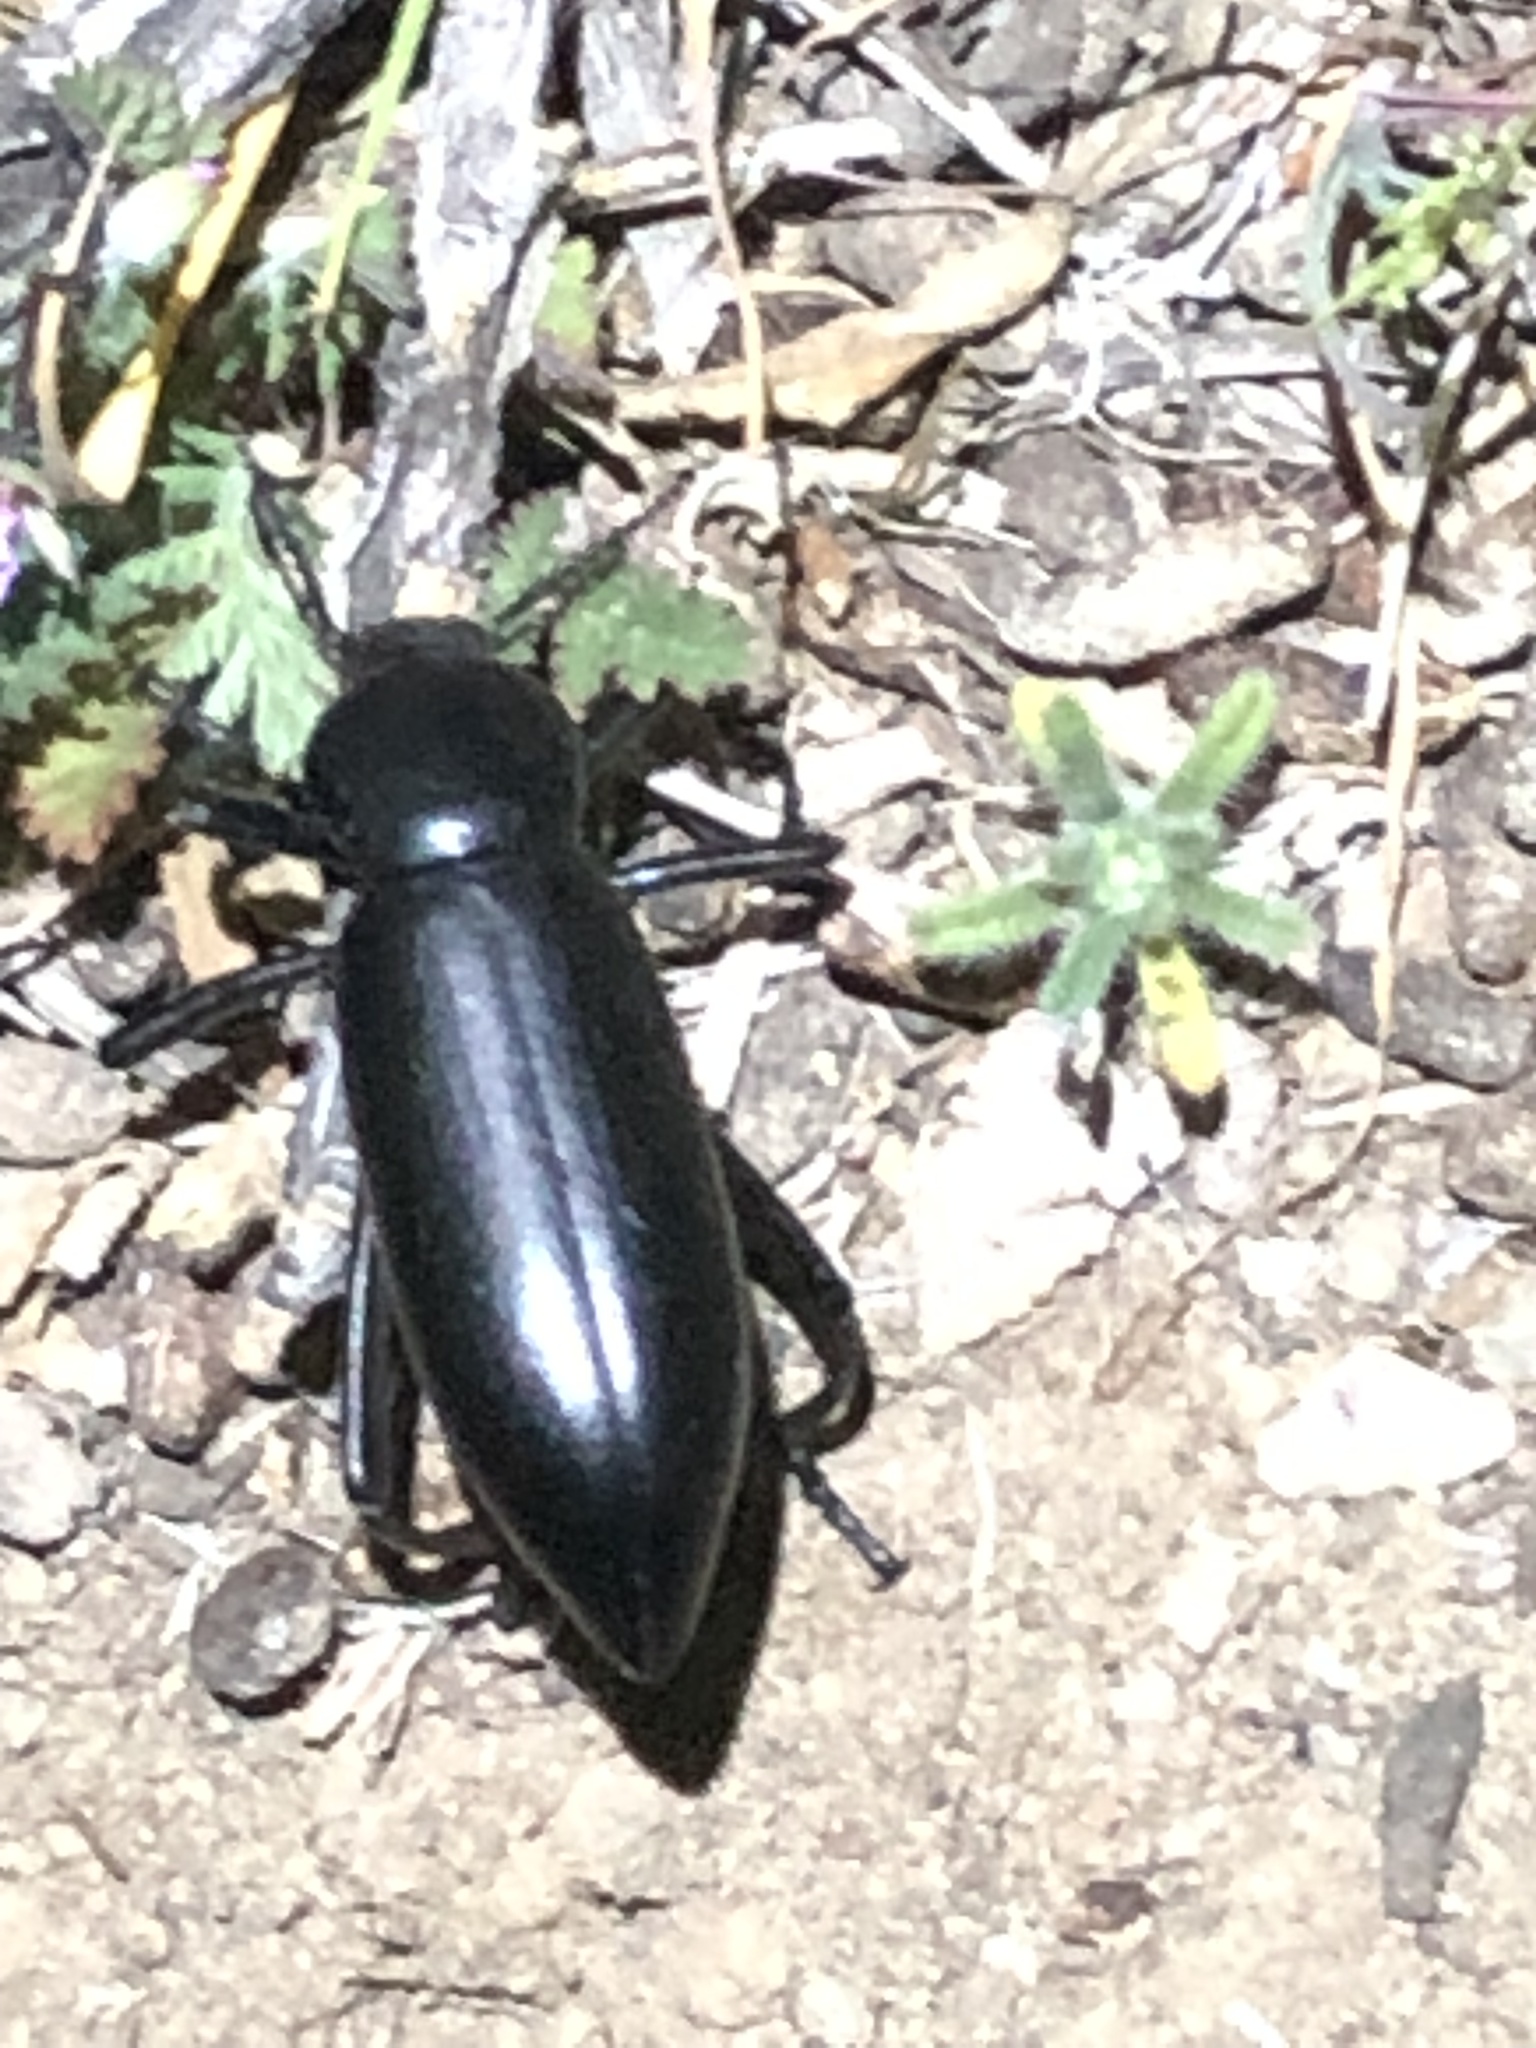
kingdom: Animalia
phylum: Arthropoda
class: Insecta
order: Coleoptera
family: Tenebrionidae
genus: Eleodes
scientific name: Eleodes gigantea
